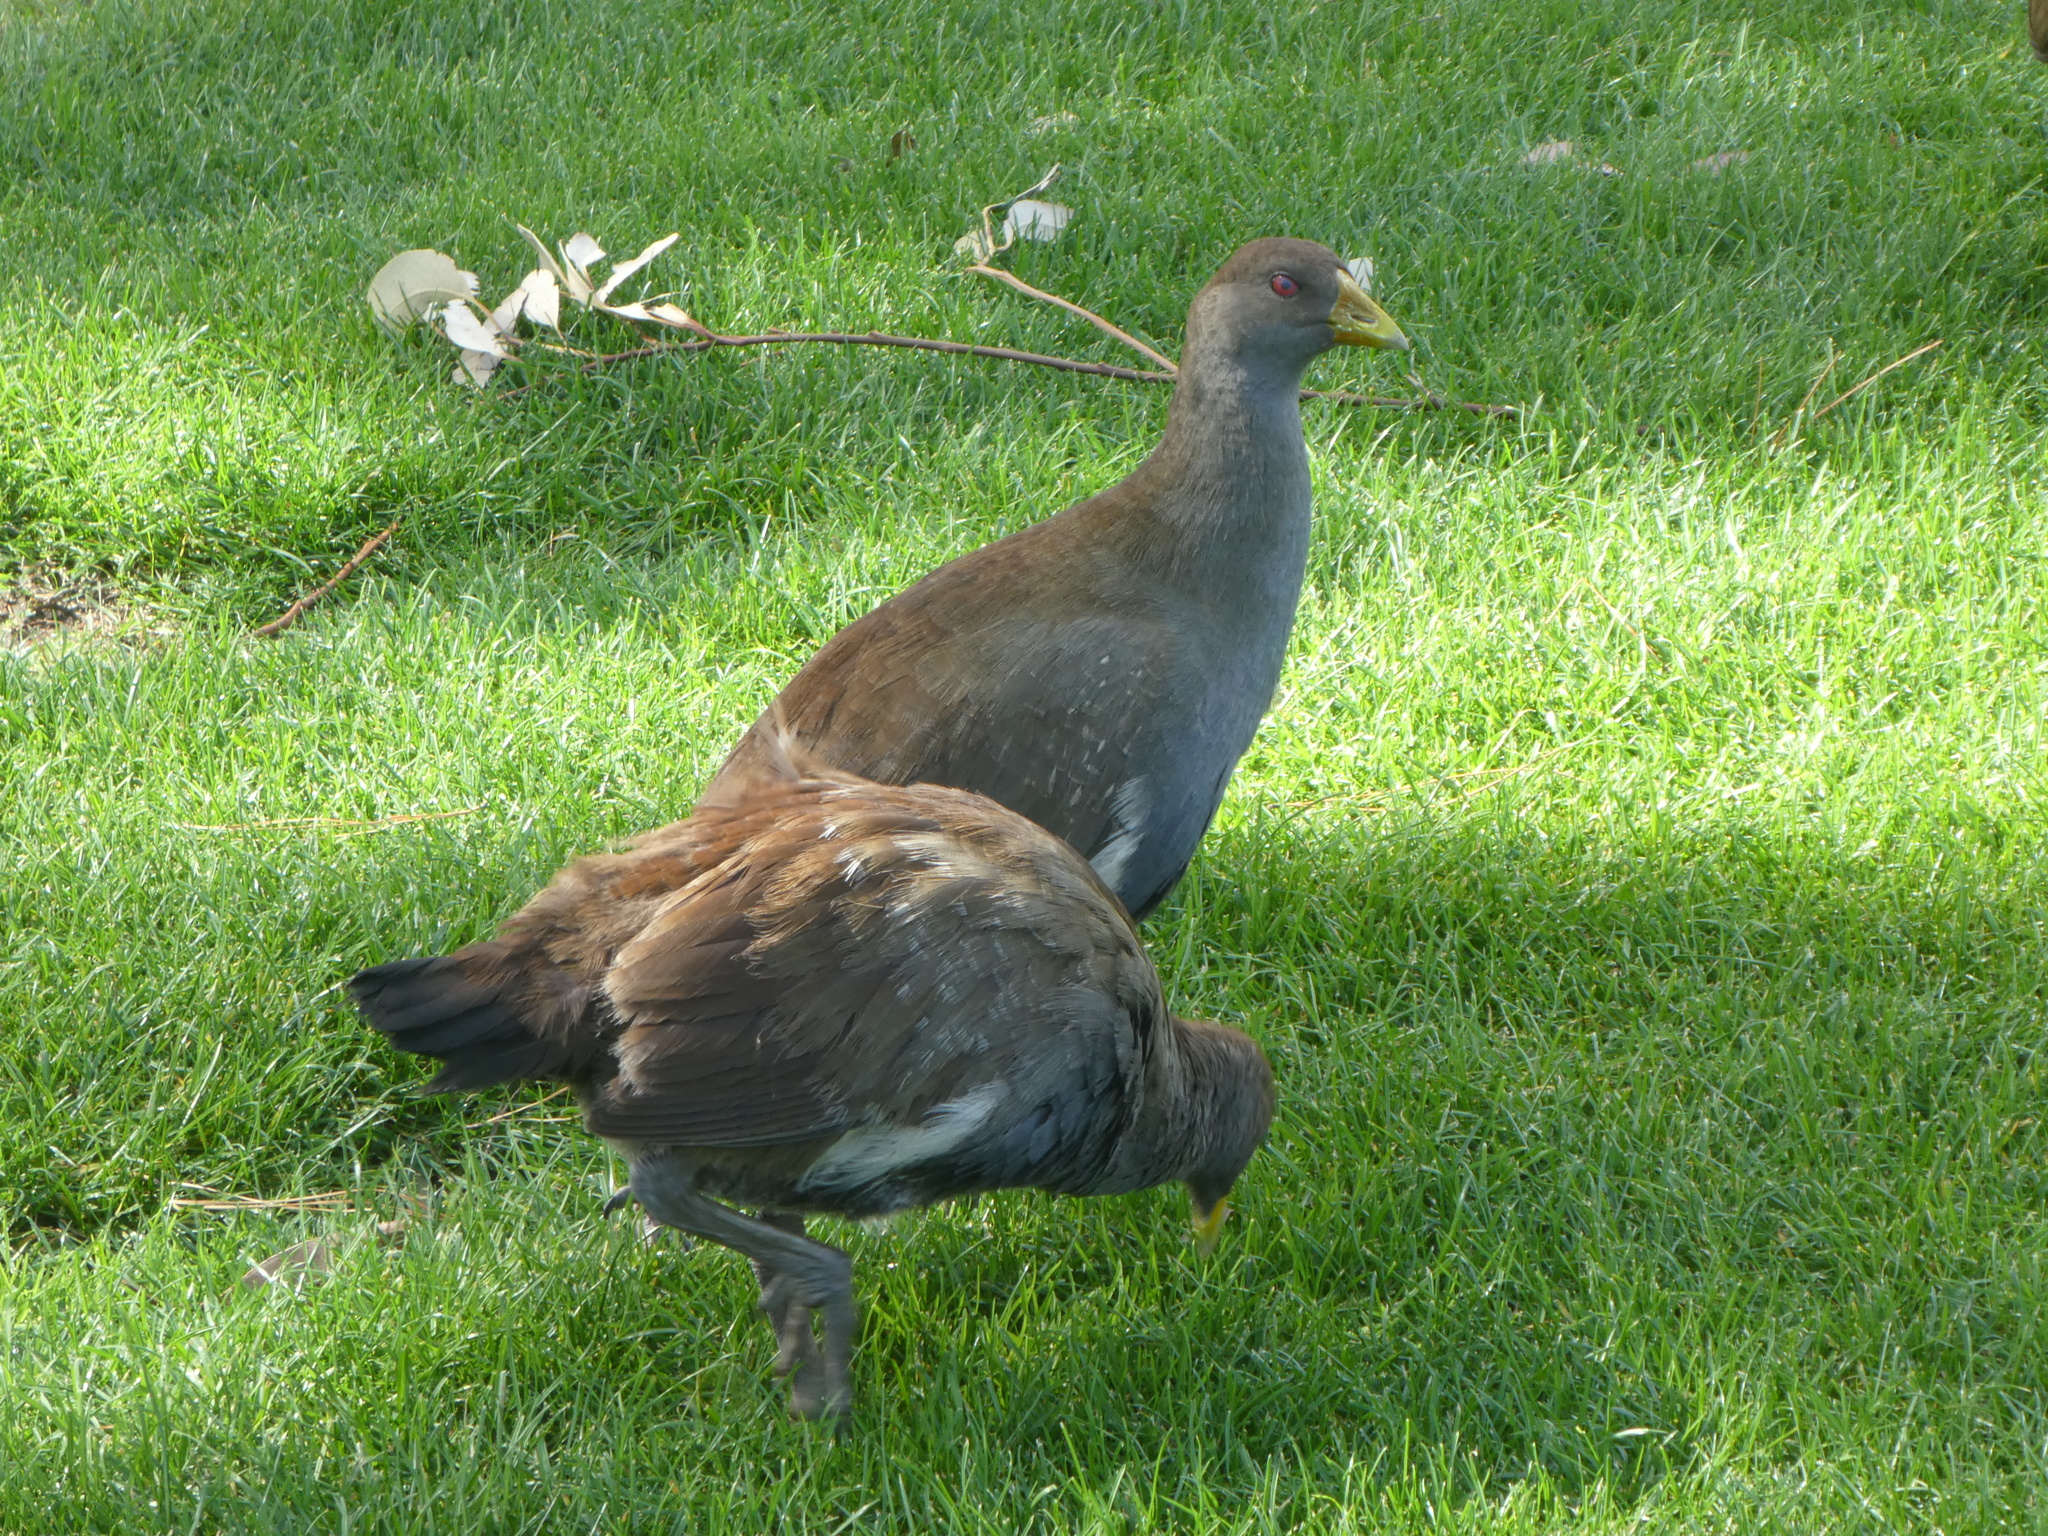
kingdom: Animalia
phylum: Chordata
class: Aves
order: Gruiformes
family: Rallidae
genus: Gallinula
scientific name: Gallinula mortierii
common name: Tasmanian nativehen
